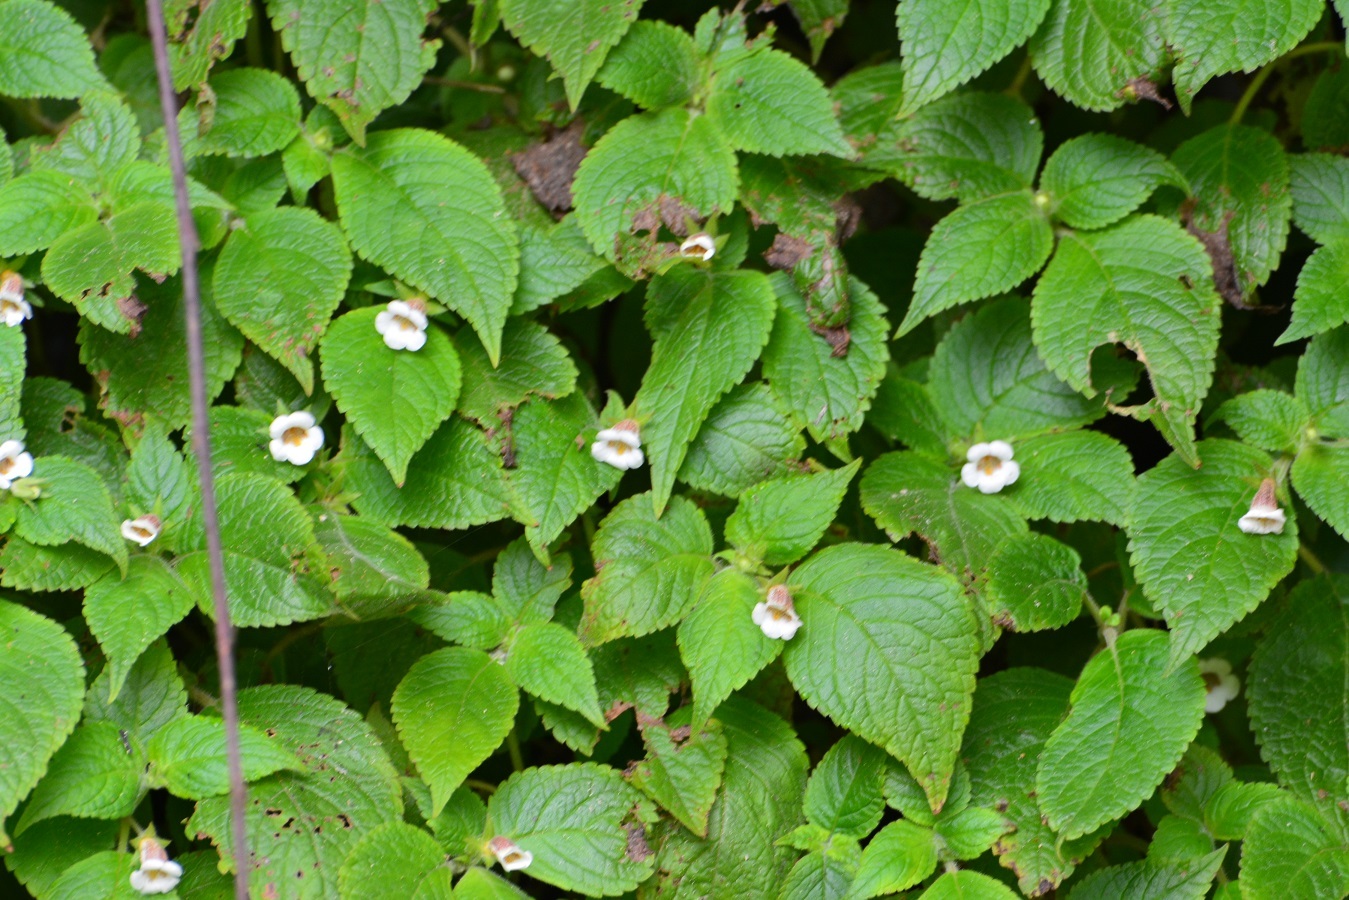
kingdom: Plantae
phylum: Tracheophyta
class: Magnoliopsida
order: Lamiales
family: Gesneriaceae
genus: Achimenes
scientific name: Achimenes misera
